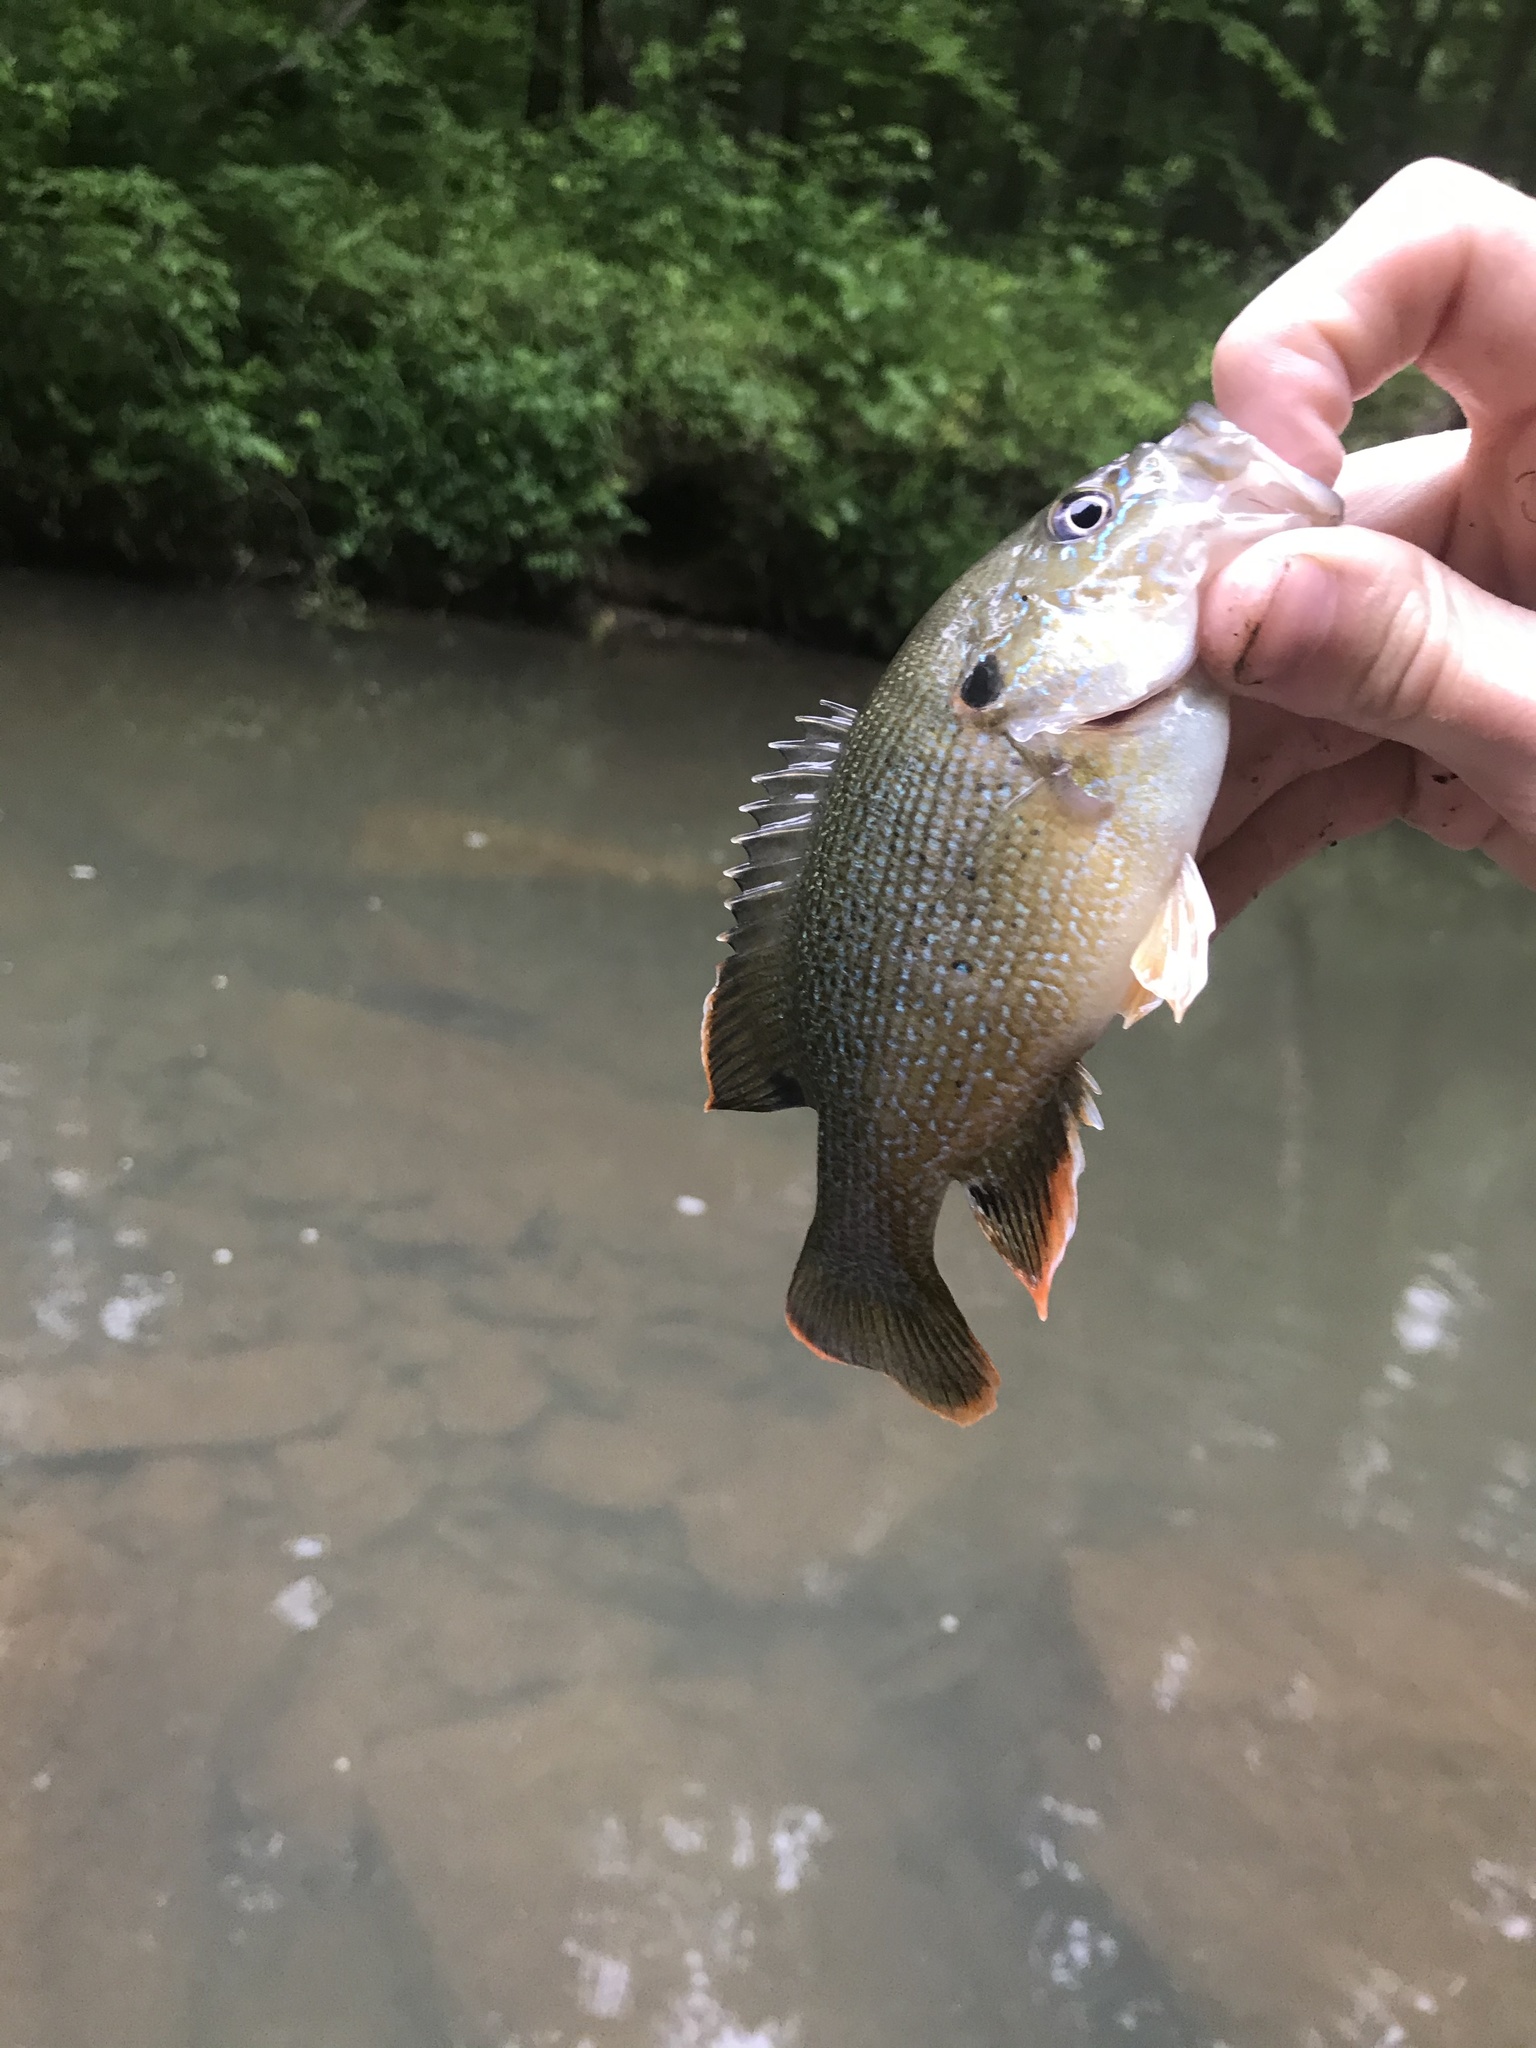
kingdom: Animalia
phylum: Chordata
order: Perciformes
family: Centrarchidae
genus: Lepomis
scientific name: Lepomis cyanellus
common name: Green sunfish
